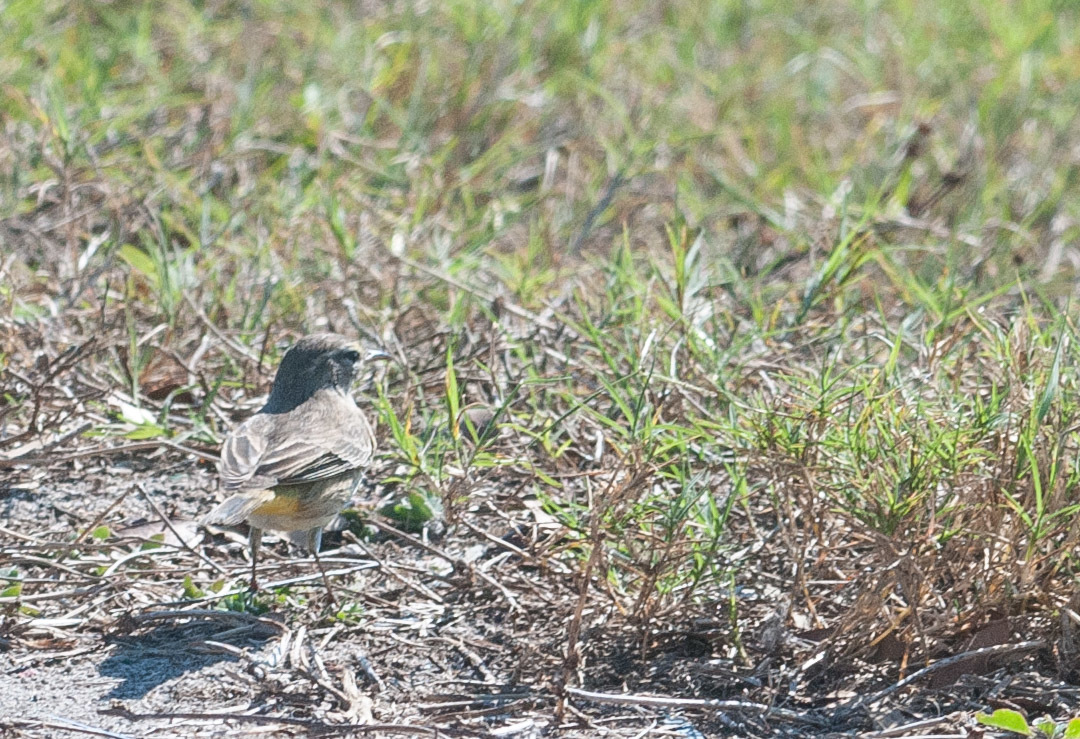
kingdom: Animalia
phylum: Chordata
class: Aves
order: Passeriformes
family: Parulidae
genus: Setophaga
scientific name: Setophaga palmarum
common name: Palm warbler
